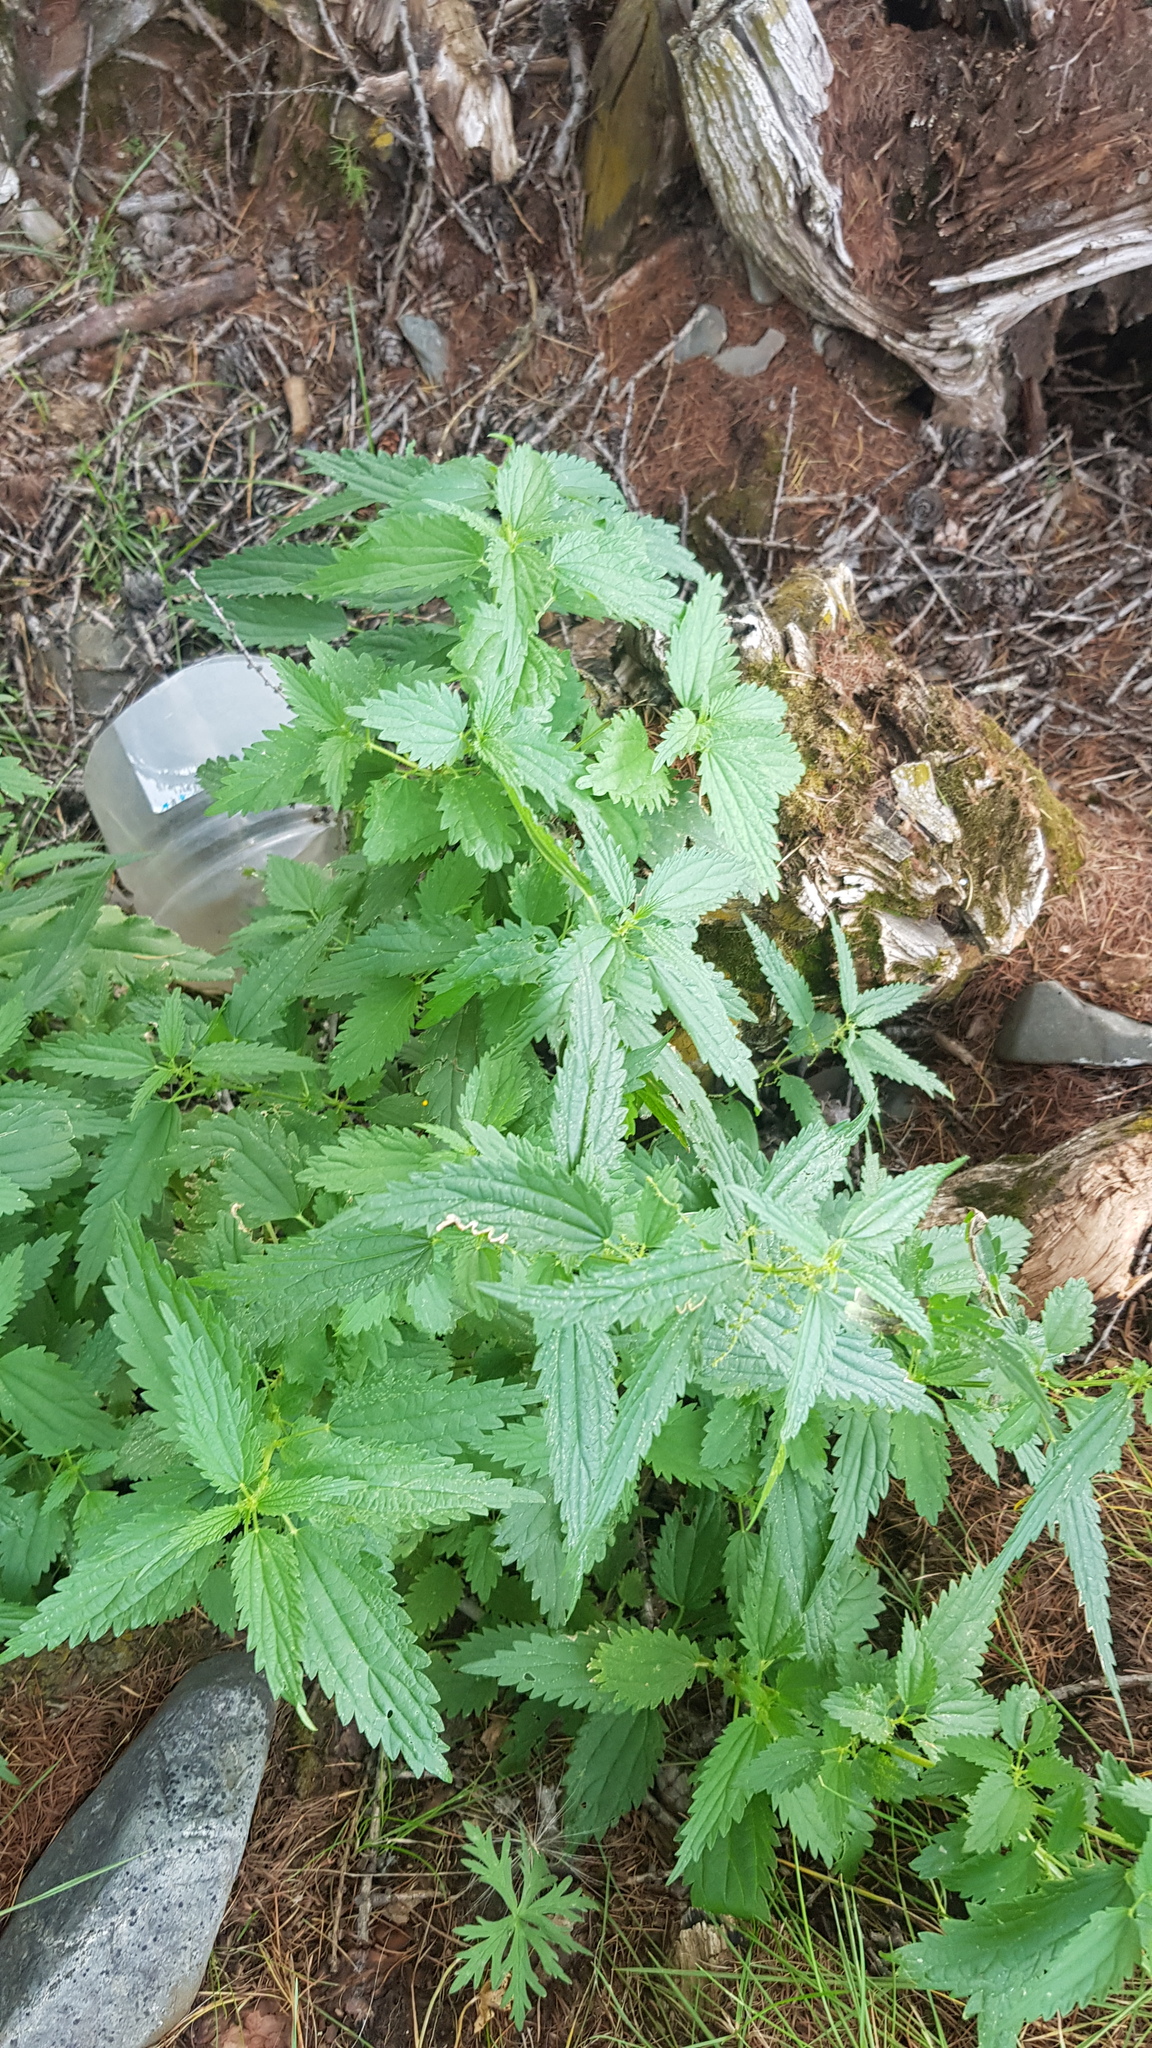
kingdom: Plantae
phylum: Tracheophyta
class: Magnoliopsida
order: Rosales
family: Urticaceae
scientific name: Urticaceae
